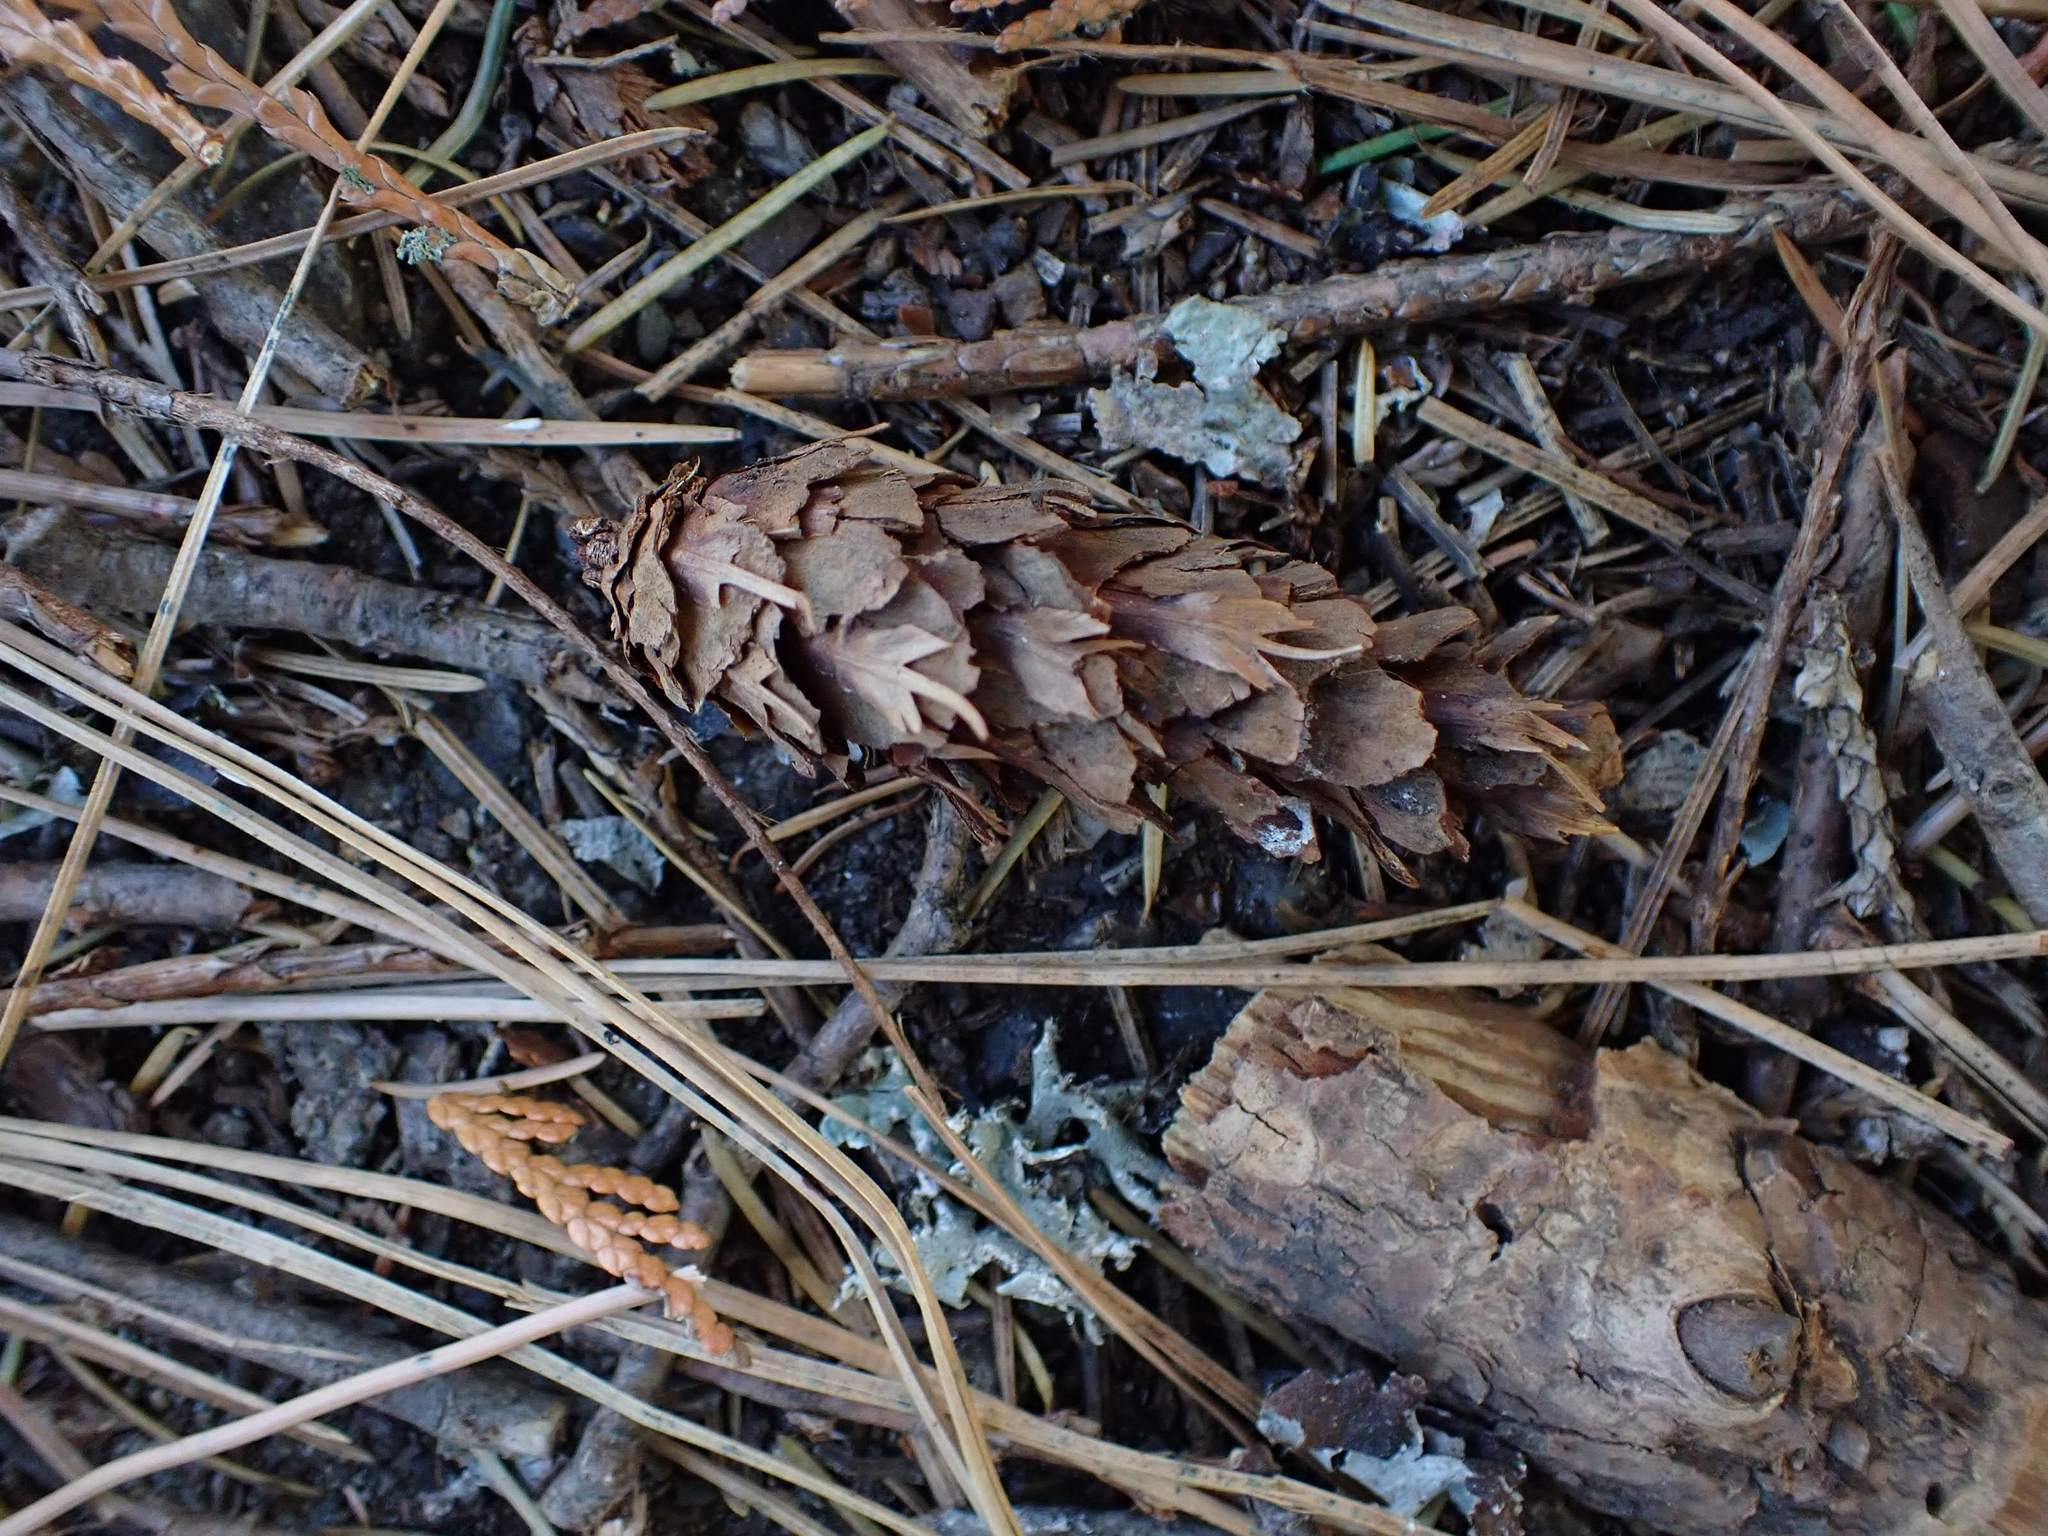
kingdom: Plantae
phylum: Tracheophyta
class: Pinopsida
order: Pinales
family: Pinaceae
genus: Pseudotsuga
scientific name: Pseudotsuga menziesii
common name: Douglas fir
